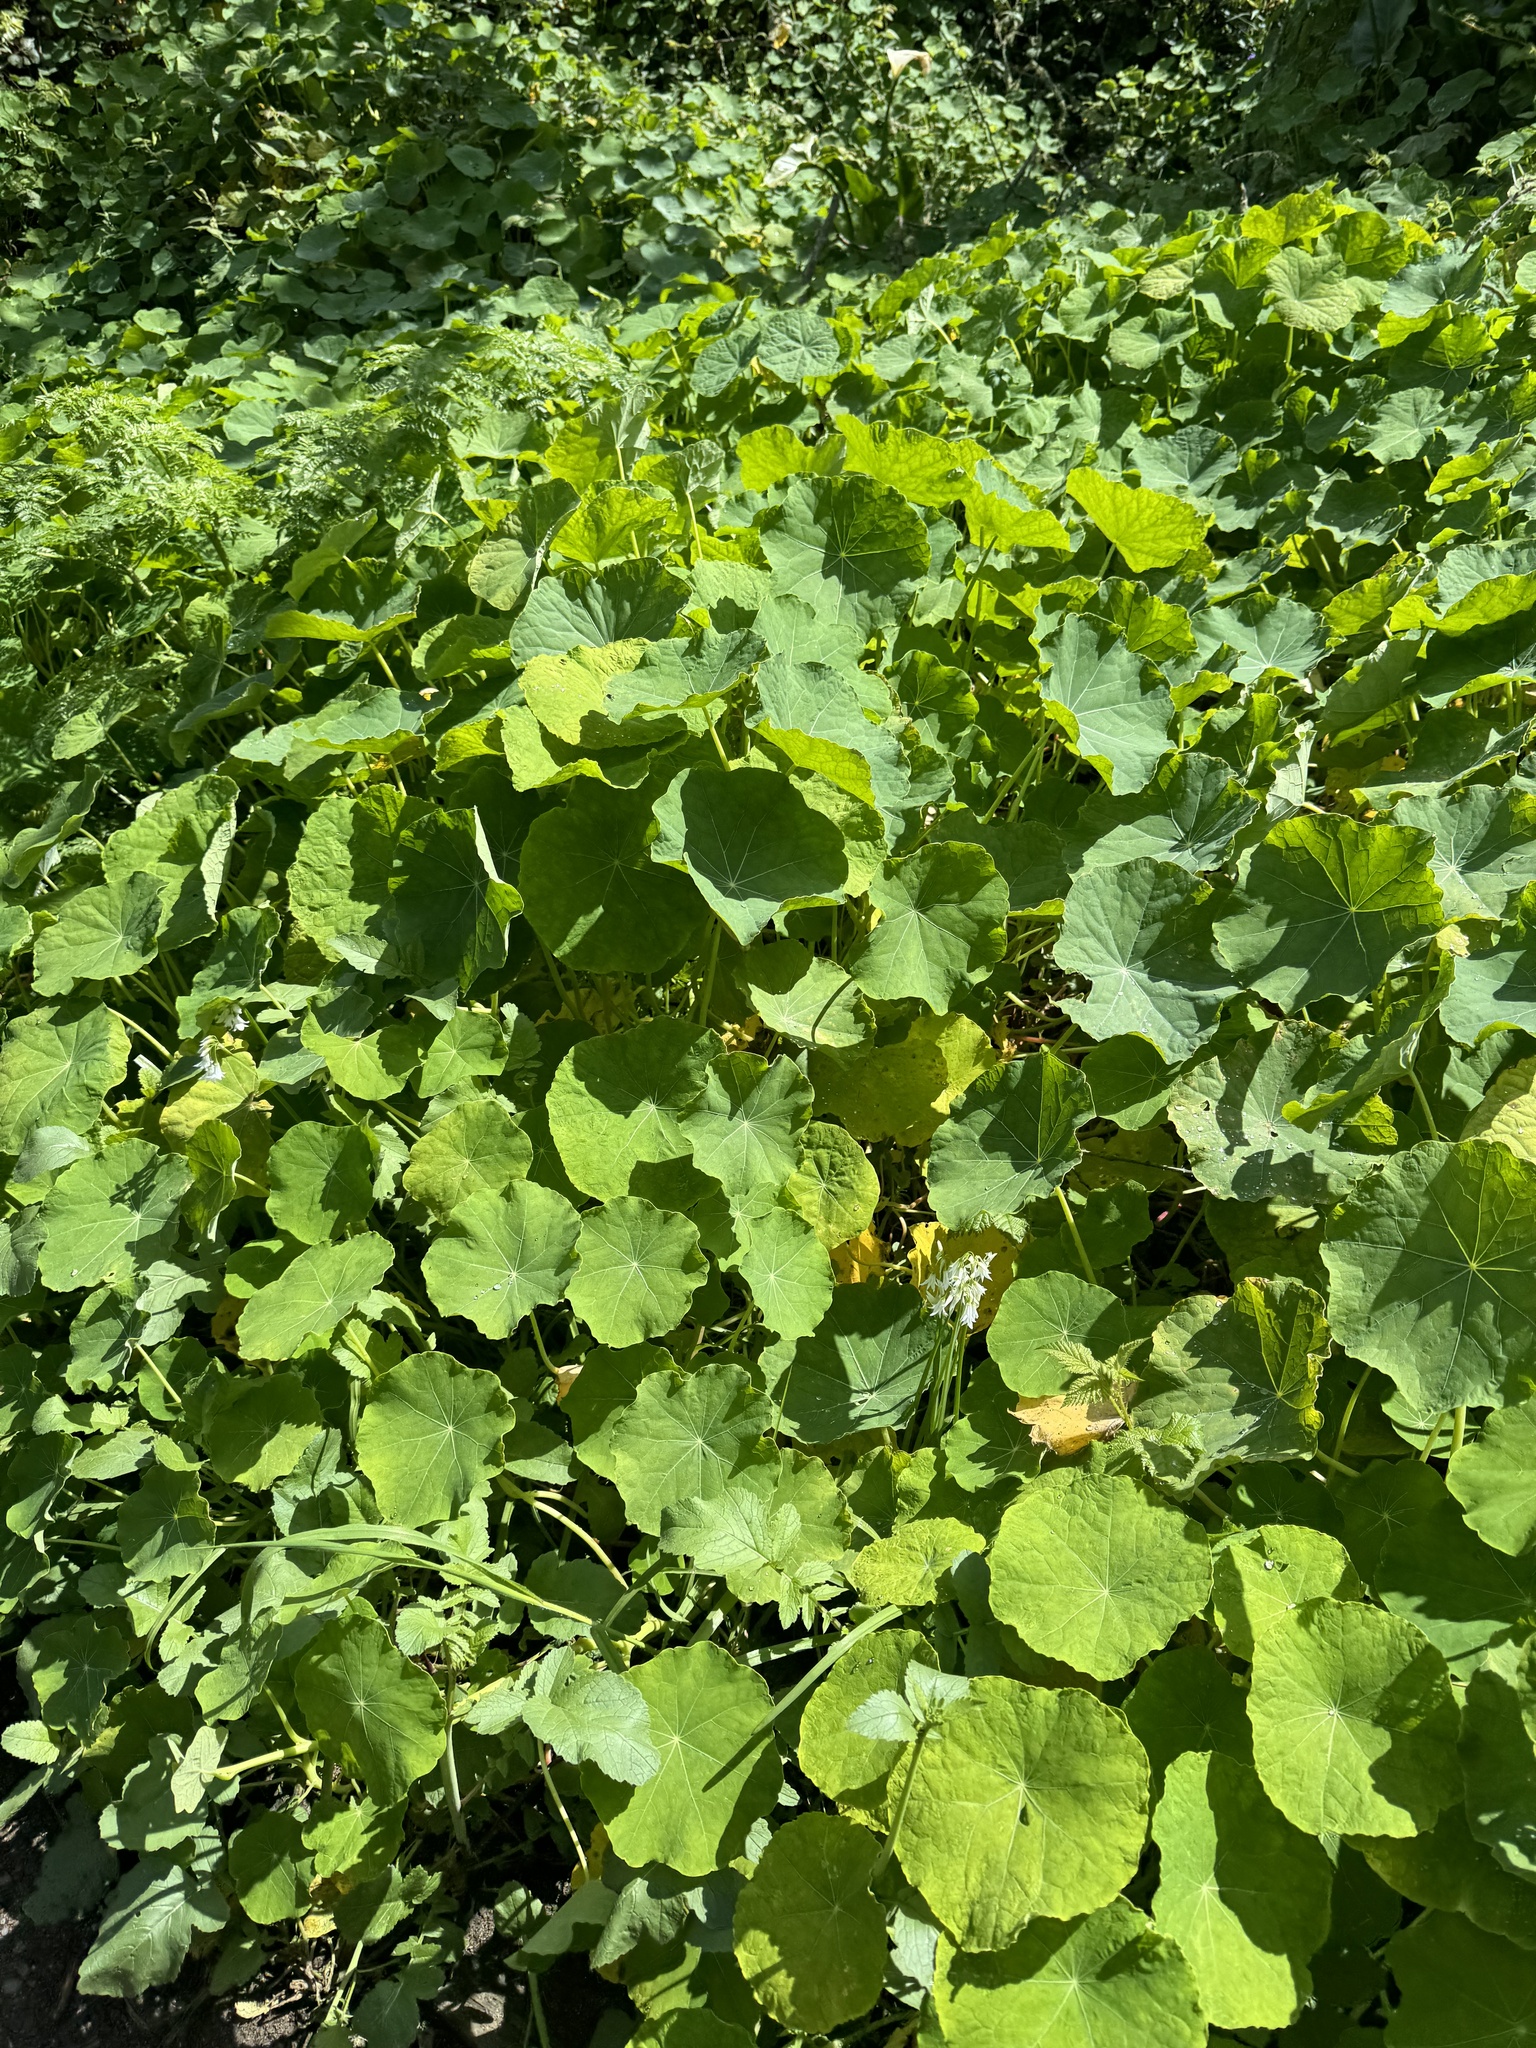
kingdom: Plantae
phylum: Tracheophyta
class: Magnoliopsida
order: Brassicales
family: Tropaeolaceae
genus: Tropaeolum
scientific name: Tropaeolum majus
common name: Nasturtium
